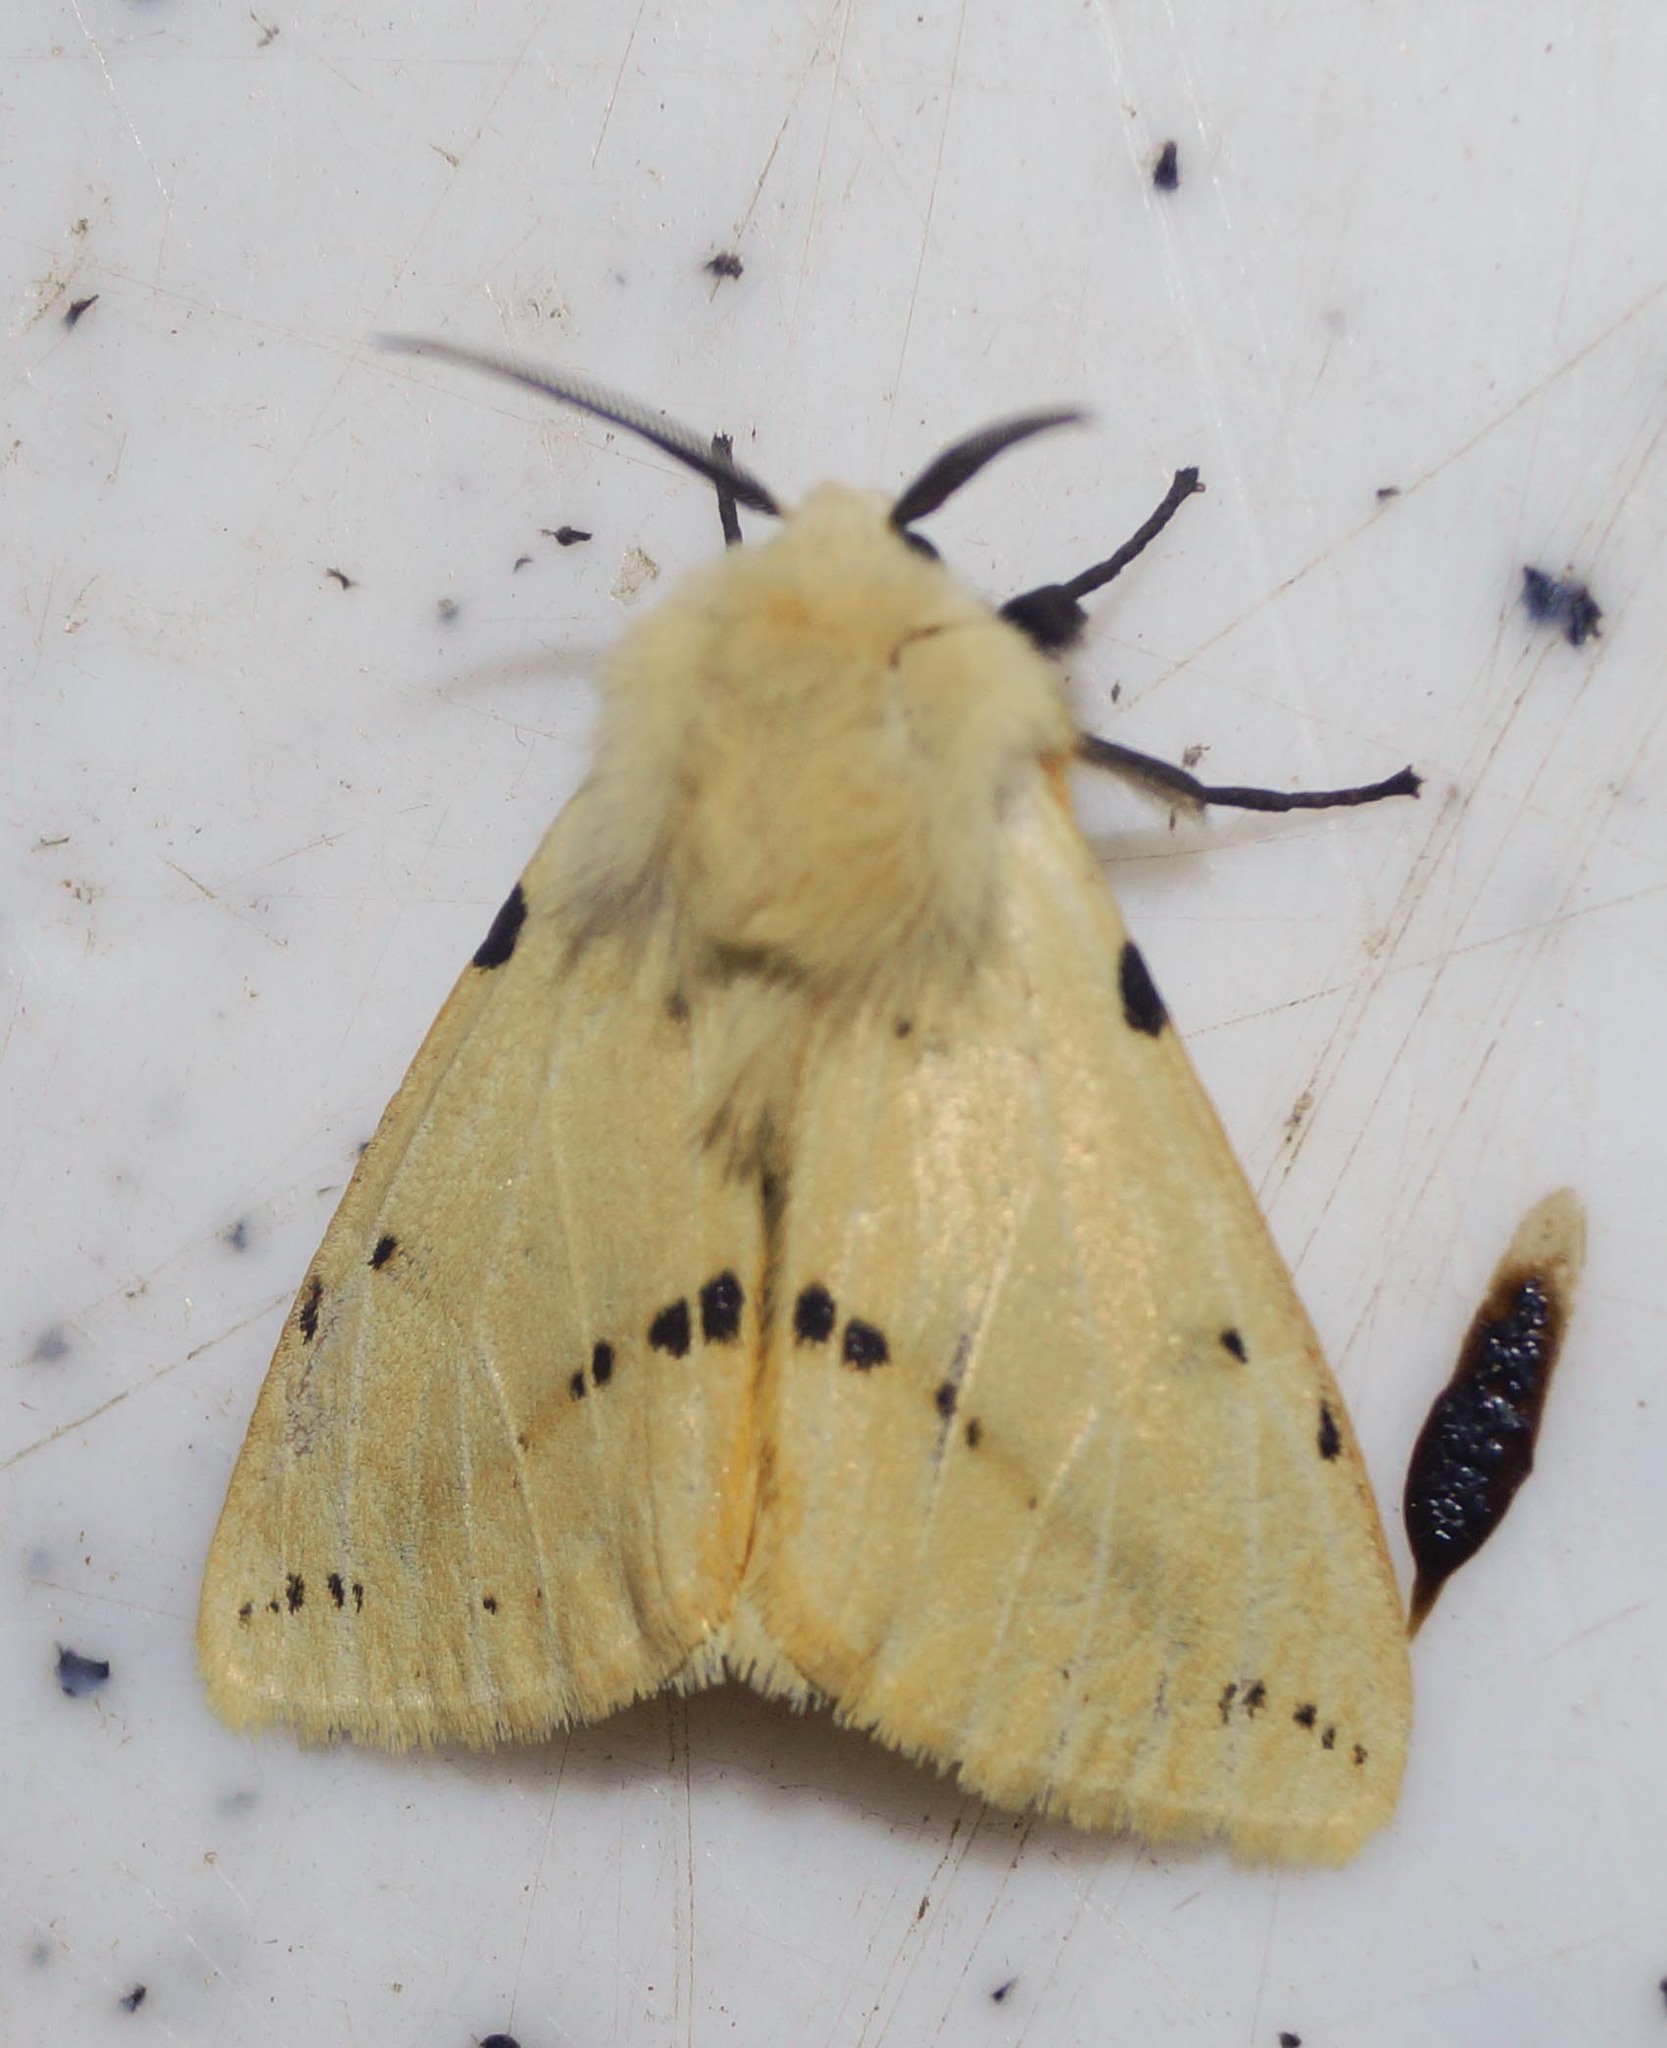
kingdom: Animalia
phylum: Arthropoda
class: Insecta
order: Lepidoptera
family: Erebidae
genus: Spilarctia
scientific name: Spilarctia lutea
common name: Buff ermine
